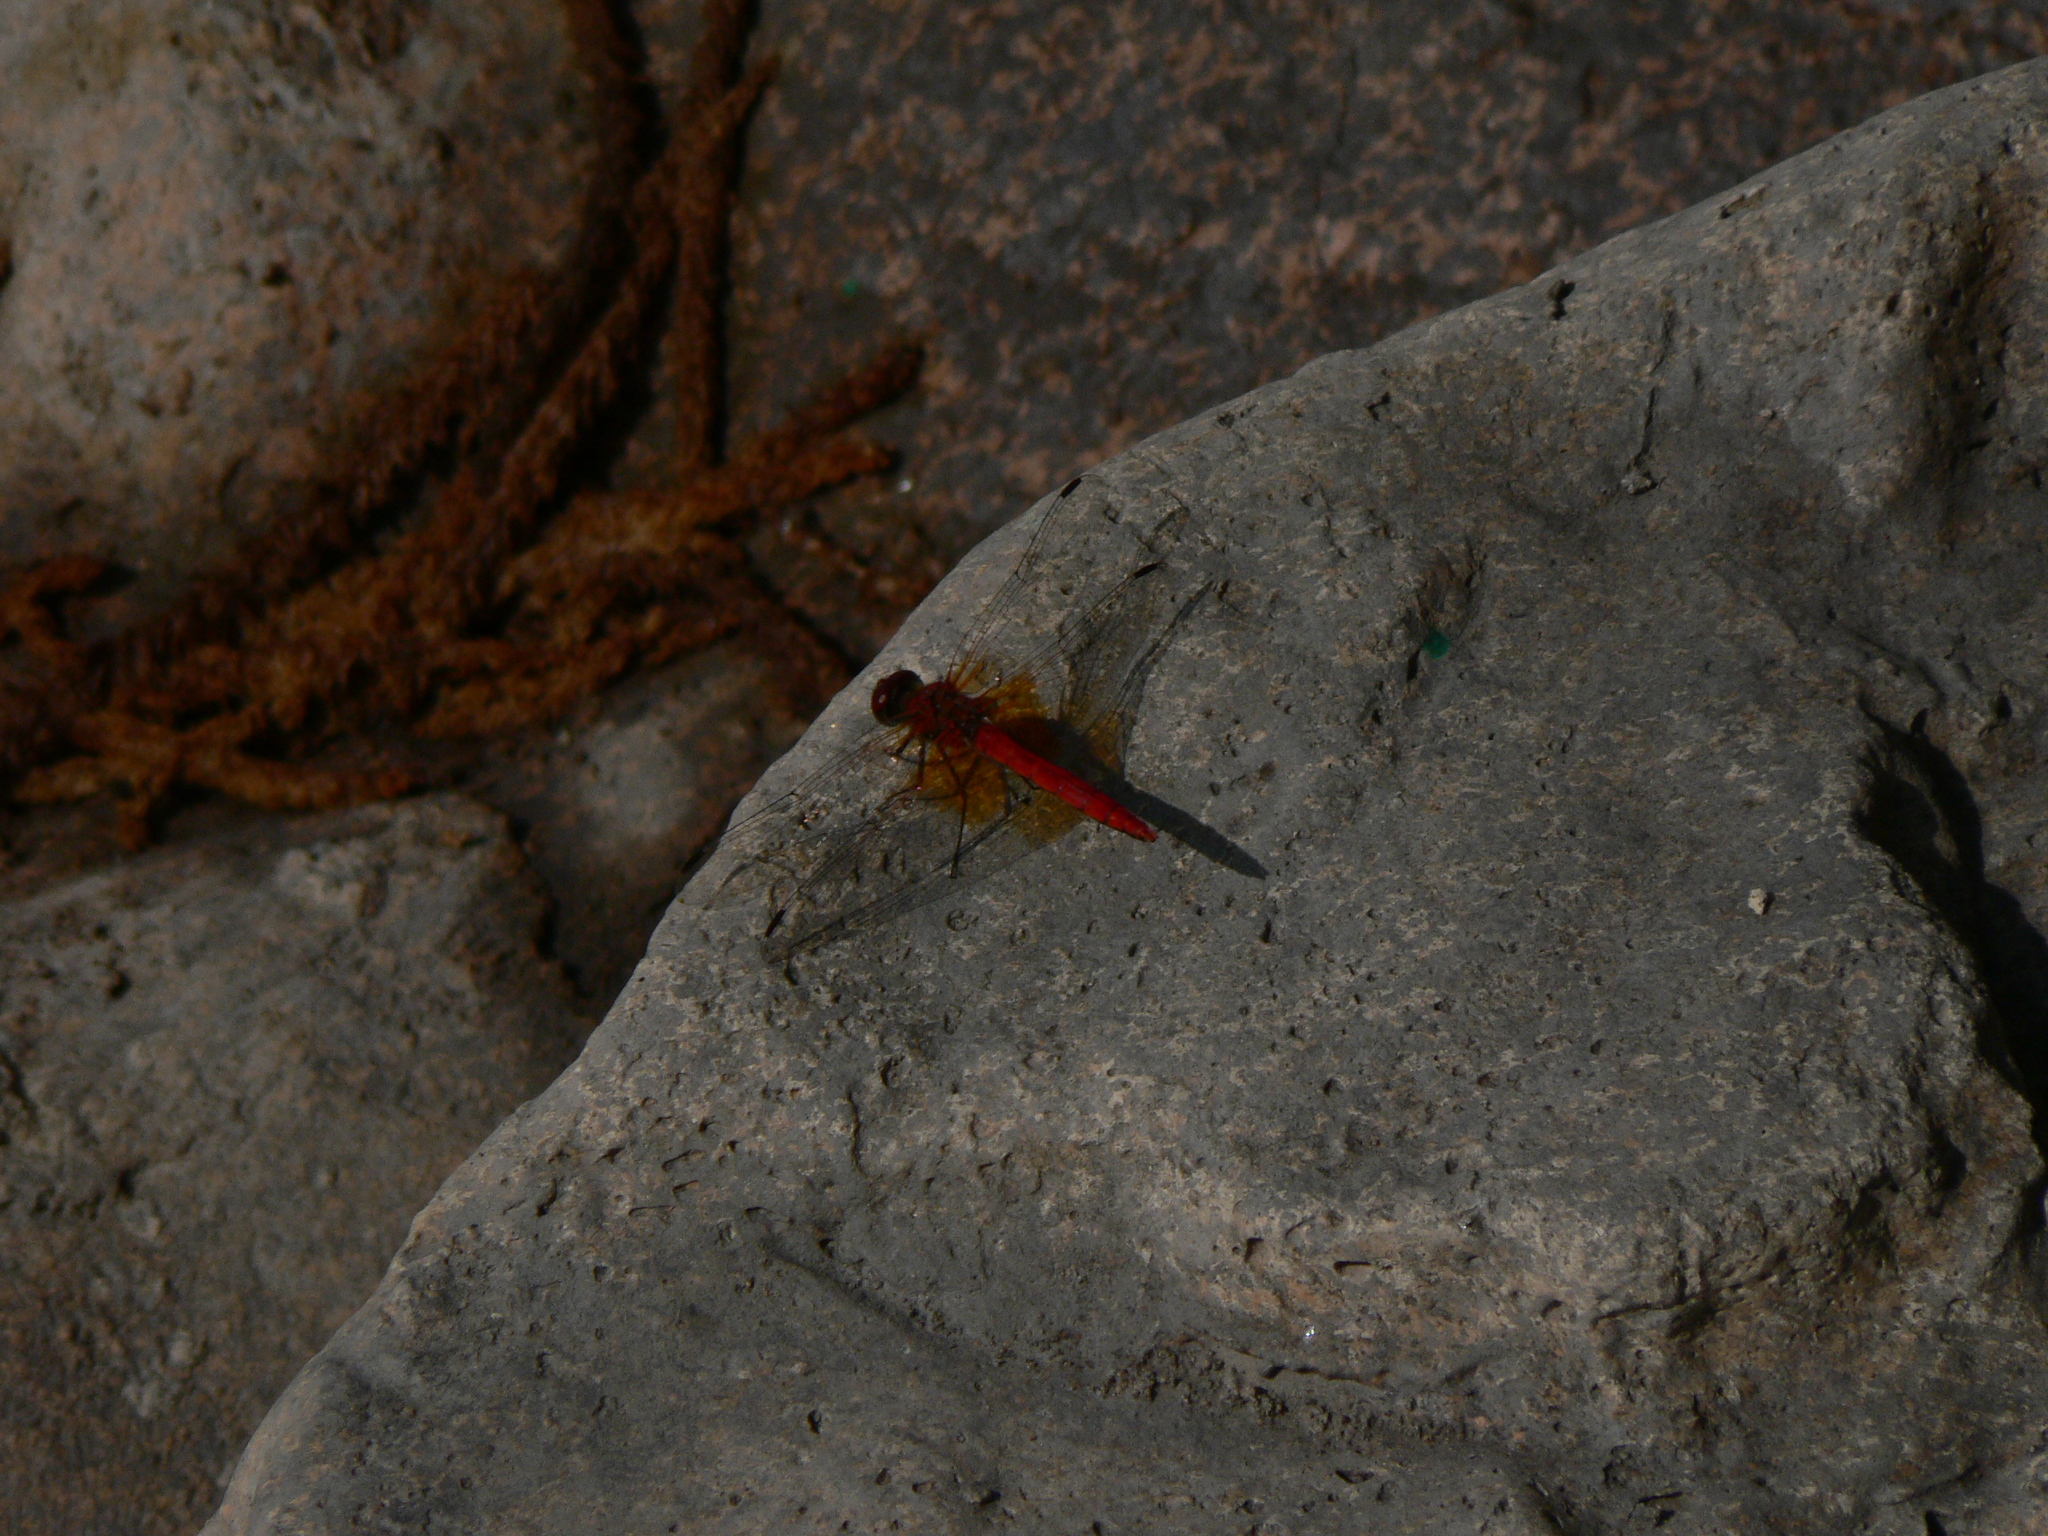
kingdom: Animalia
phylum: Arthropoda
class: Insecta
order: Odonata
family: Libellulidae
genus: Sympetrum
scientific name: Sympetrum speciosum
